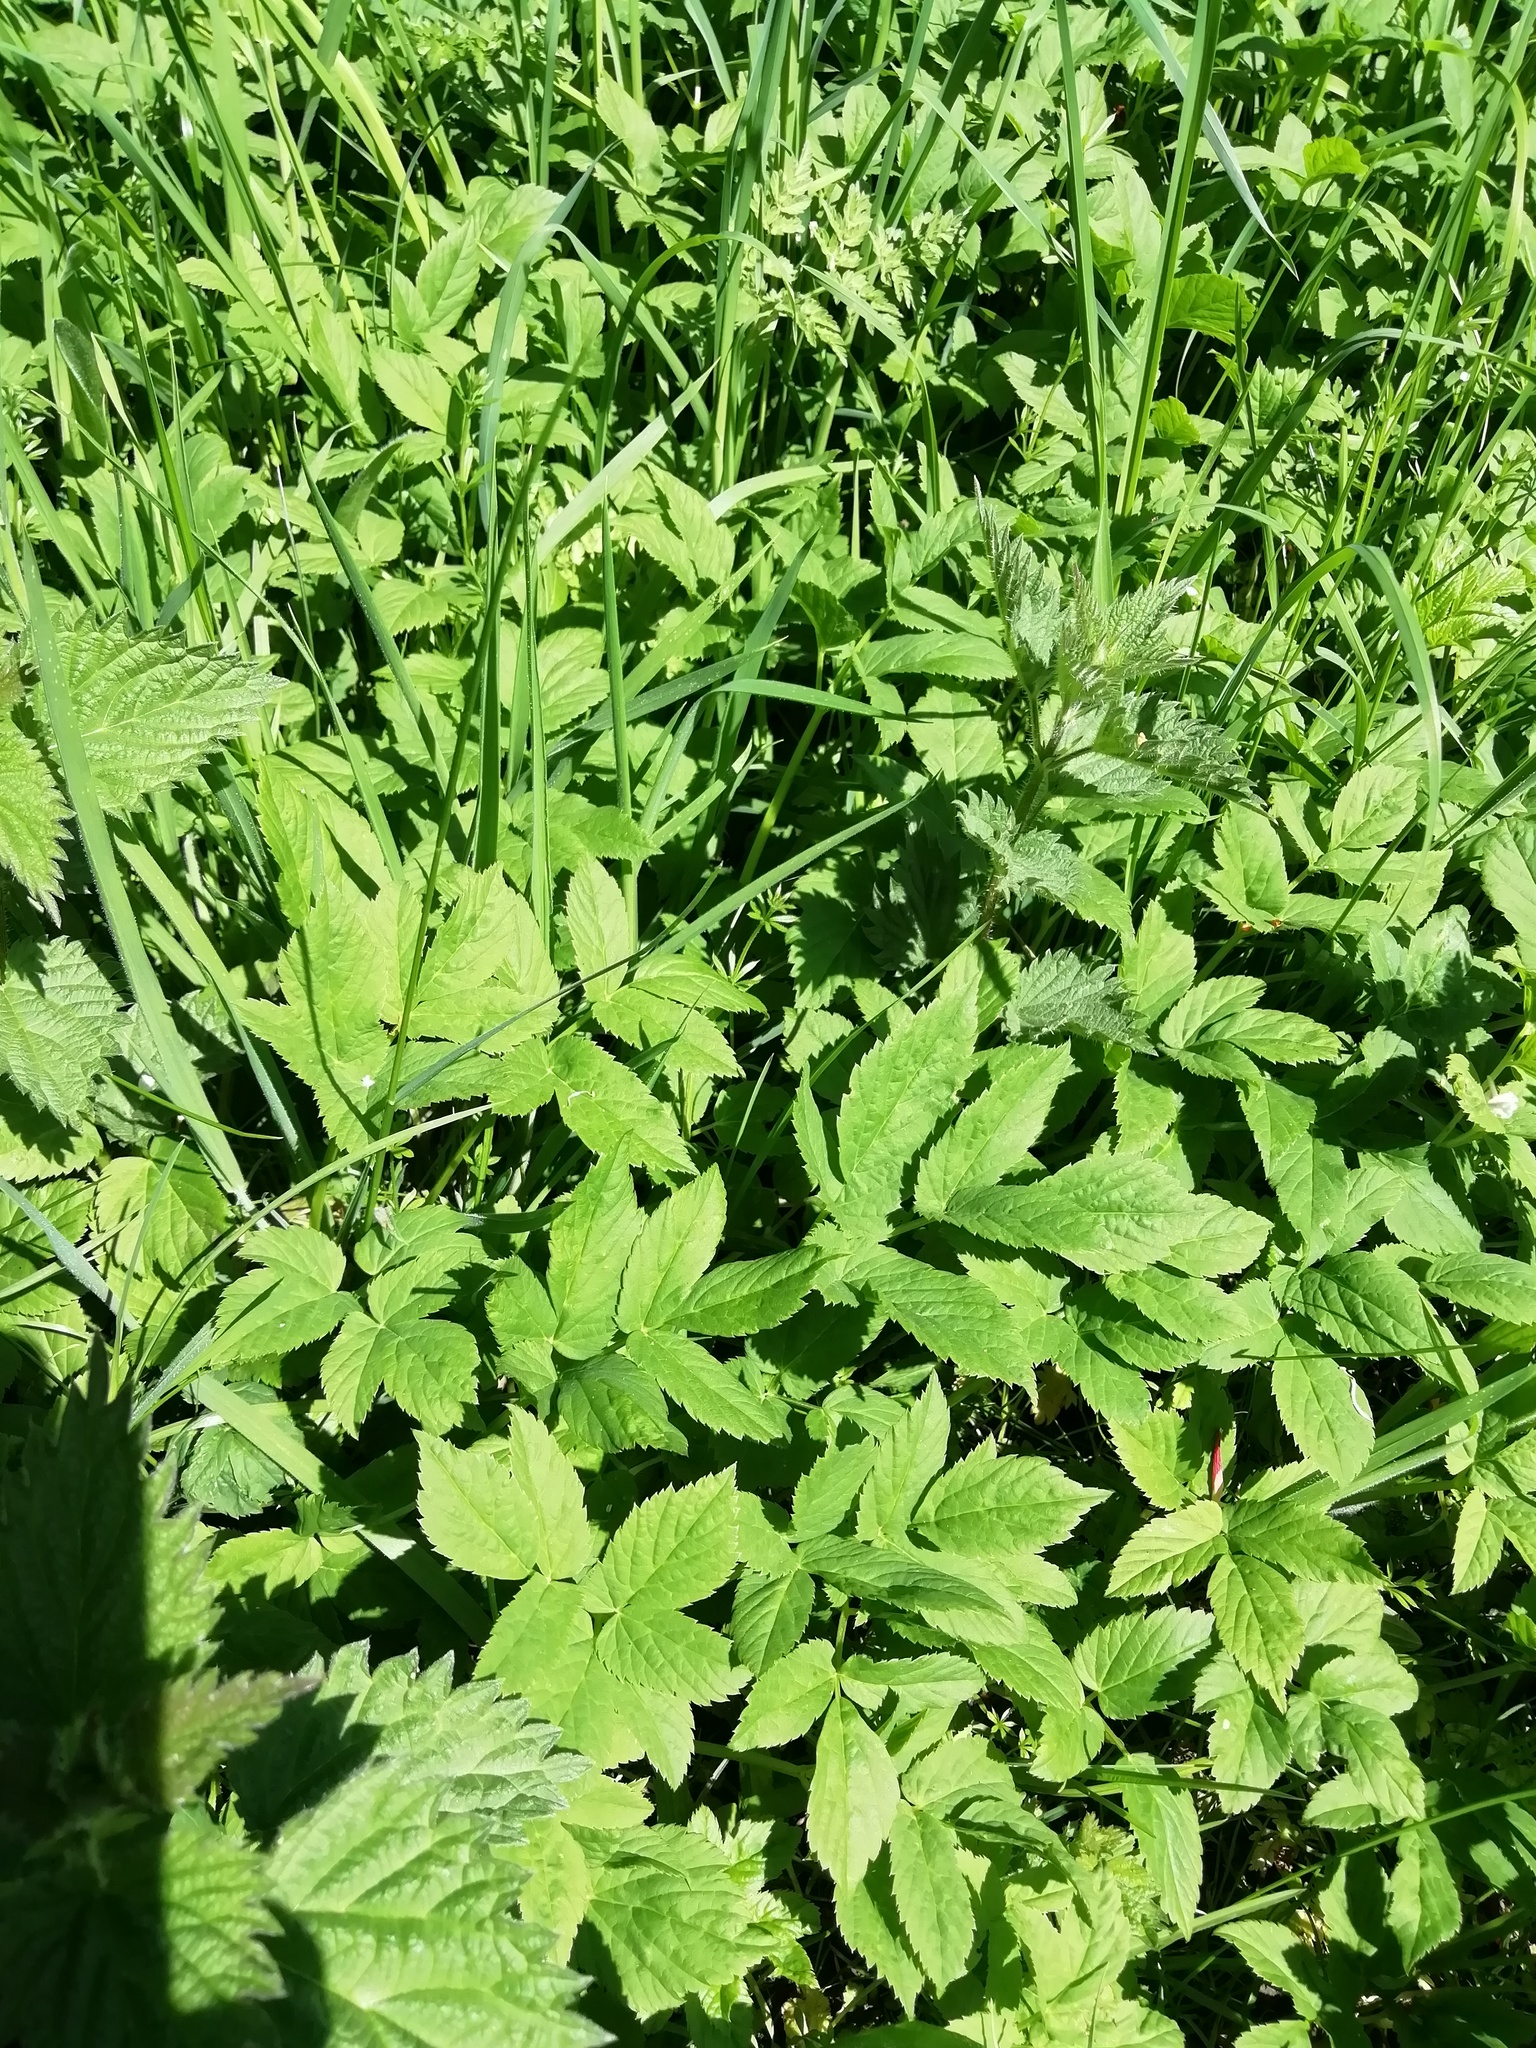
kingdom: Plantae
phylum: Tracheophyta
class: Magnoliopsida
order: Apiales
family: Apiaceae
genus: Aegopodium
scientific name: Aegopodium podagraria
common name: Ground-elder
